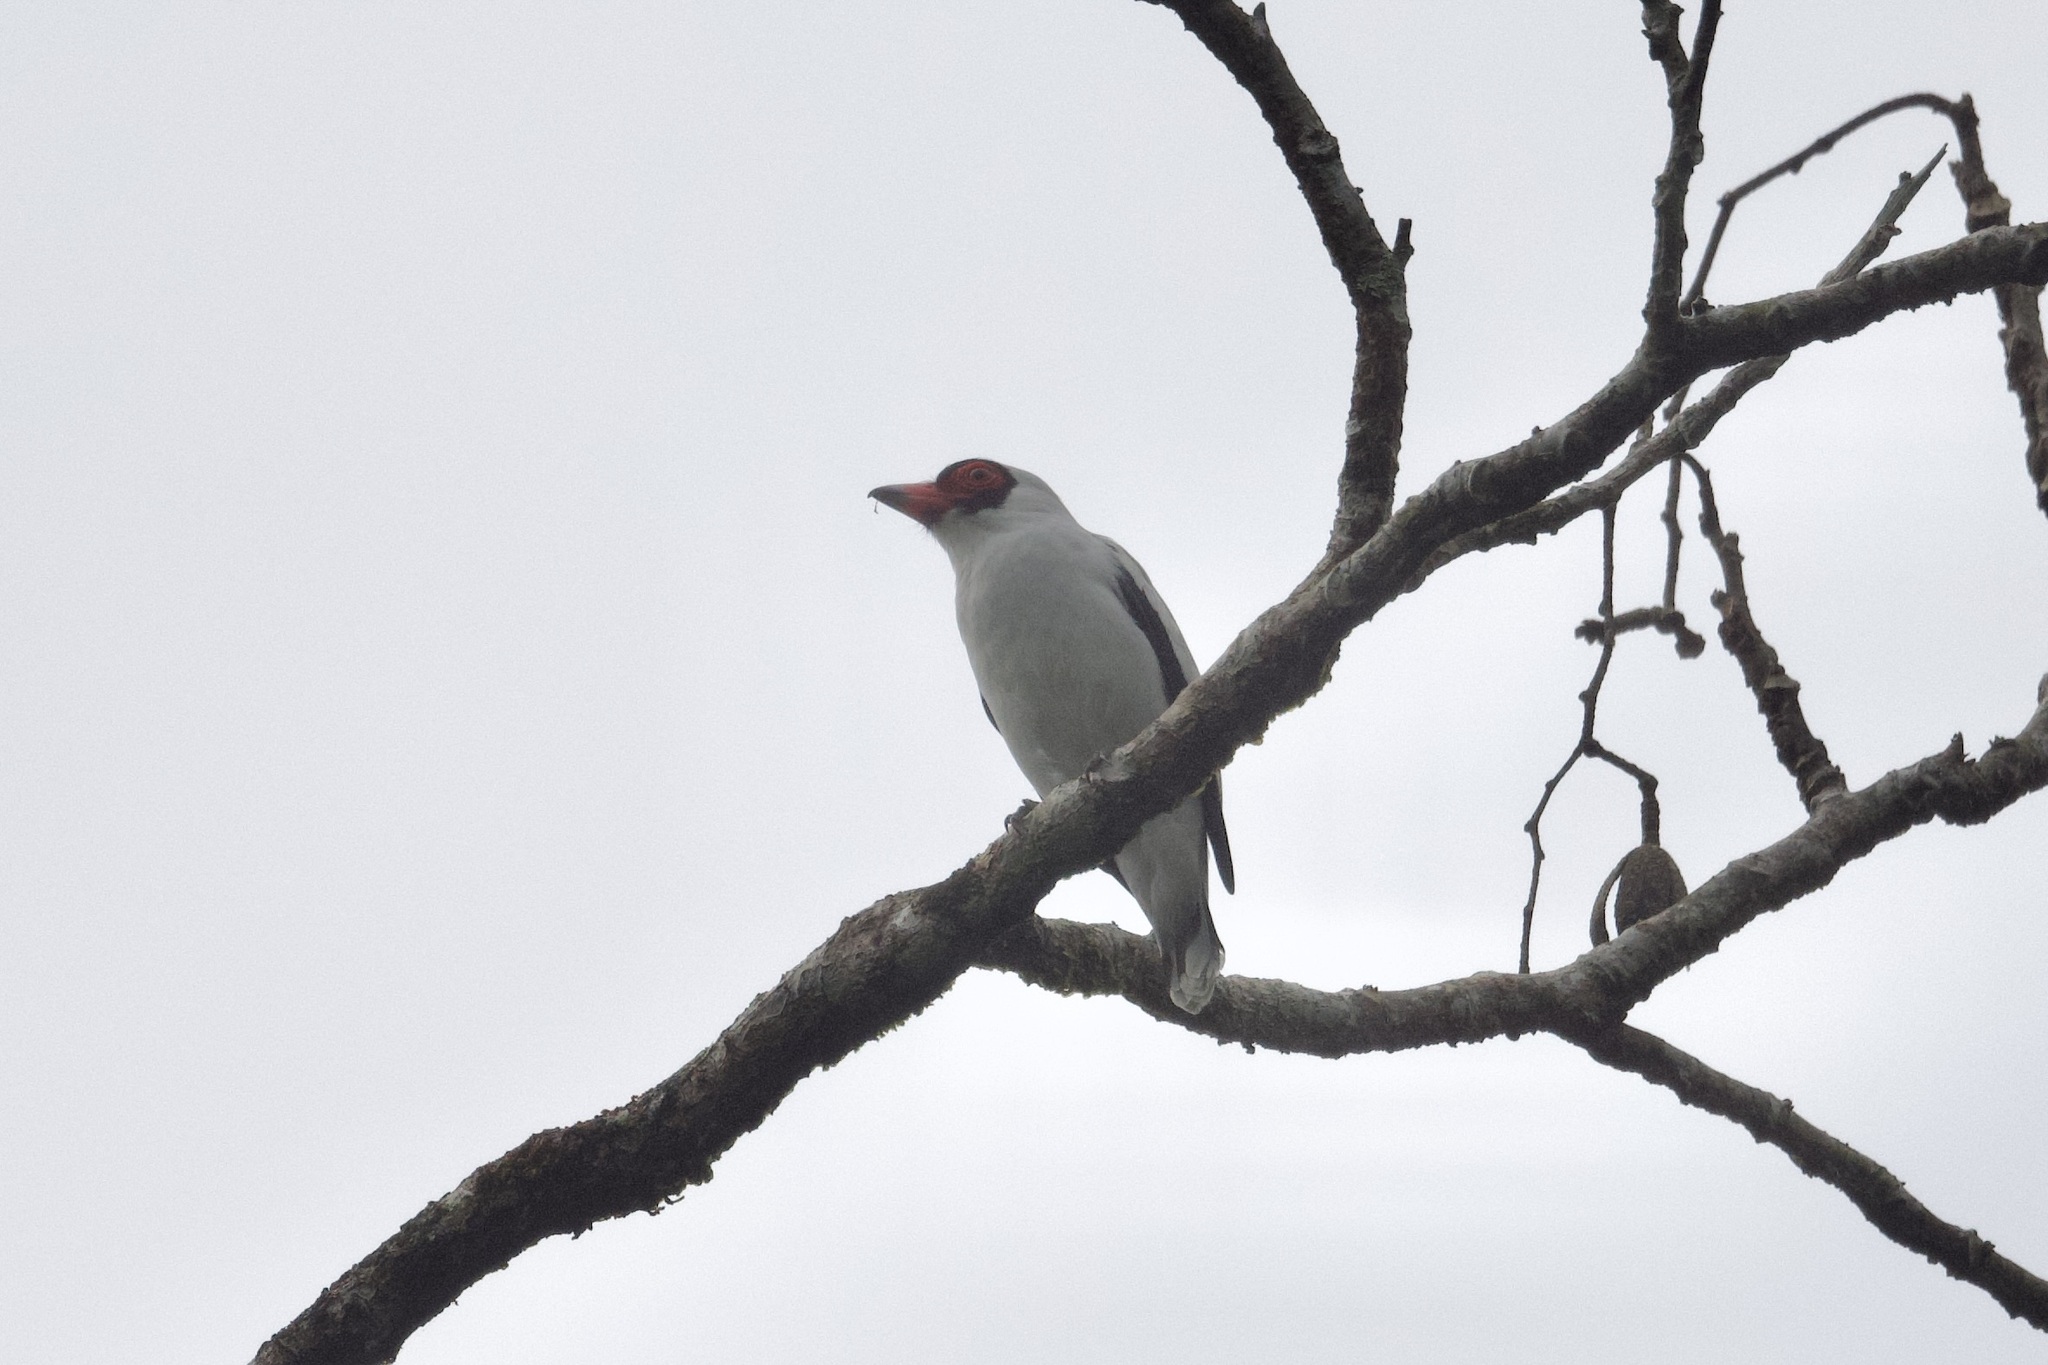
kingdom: Animalia
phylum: Chordata
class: Aves
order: Passeriformes
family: Cotingidae
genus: Tityra
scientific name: Tityra semifasciata
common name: Masked tityra
